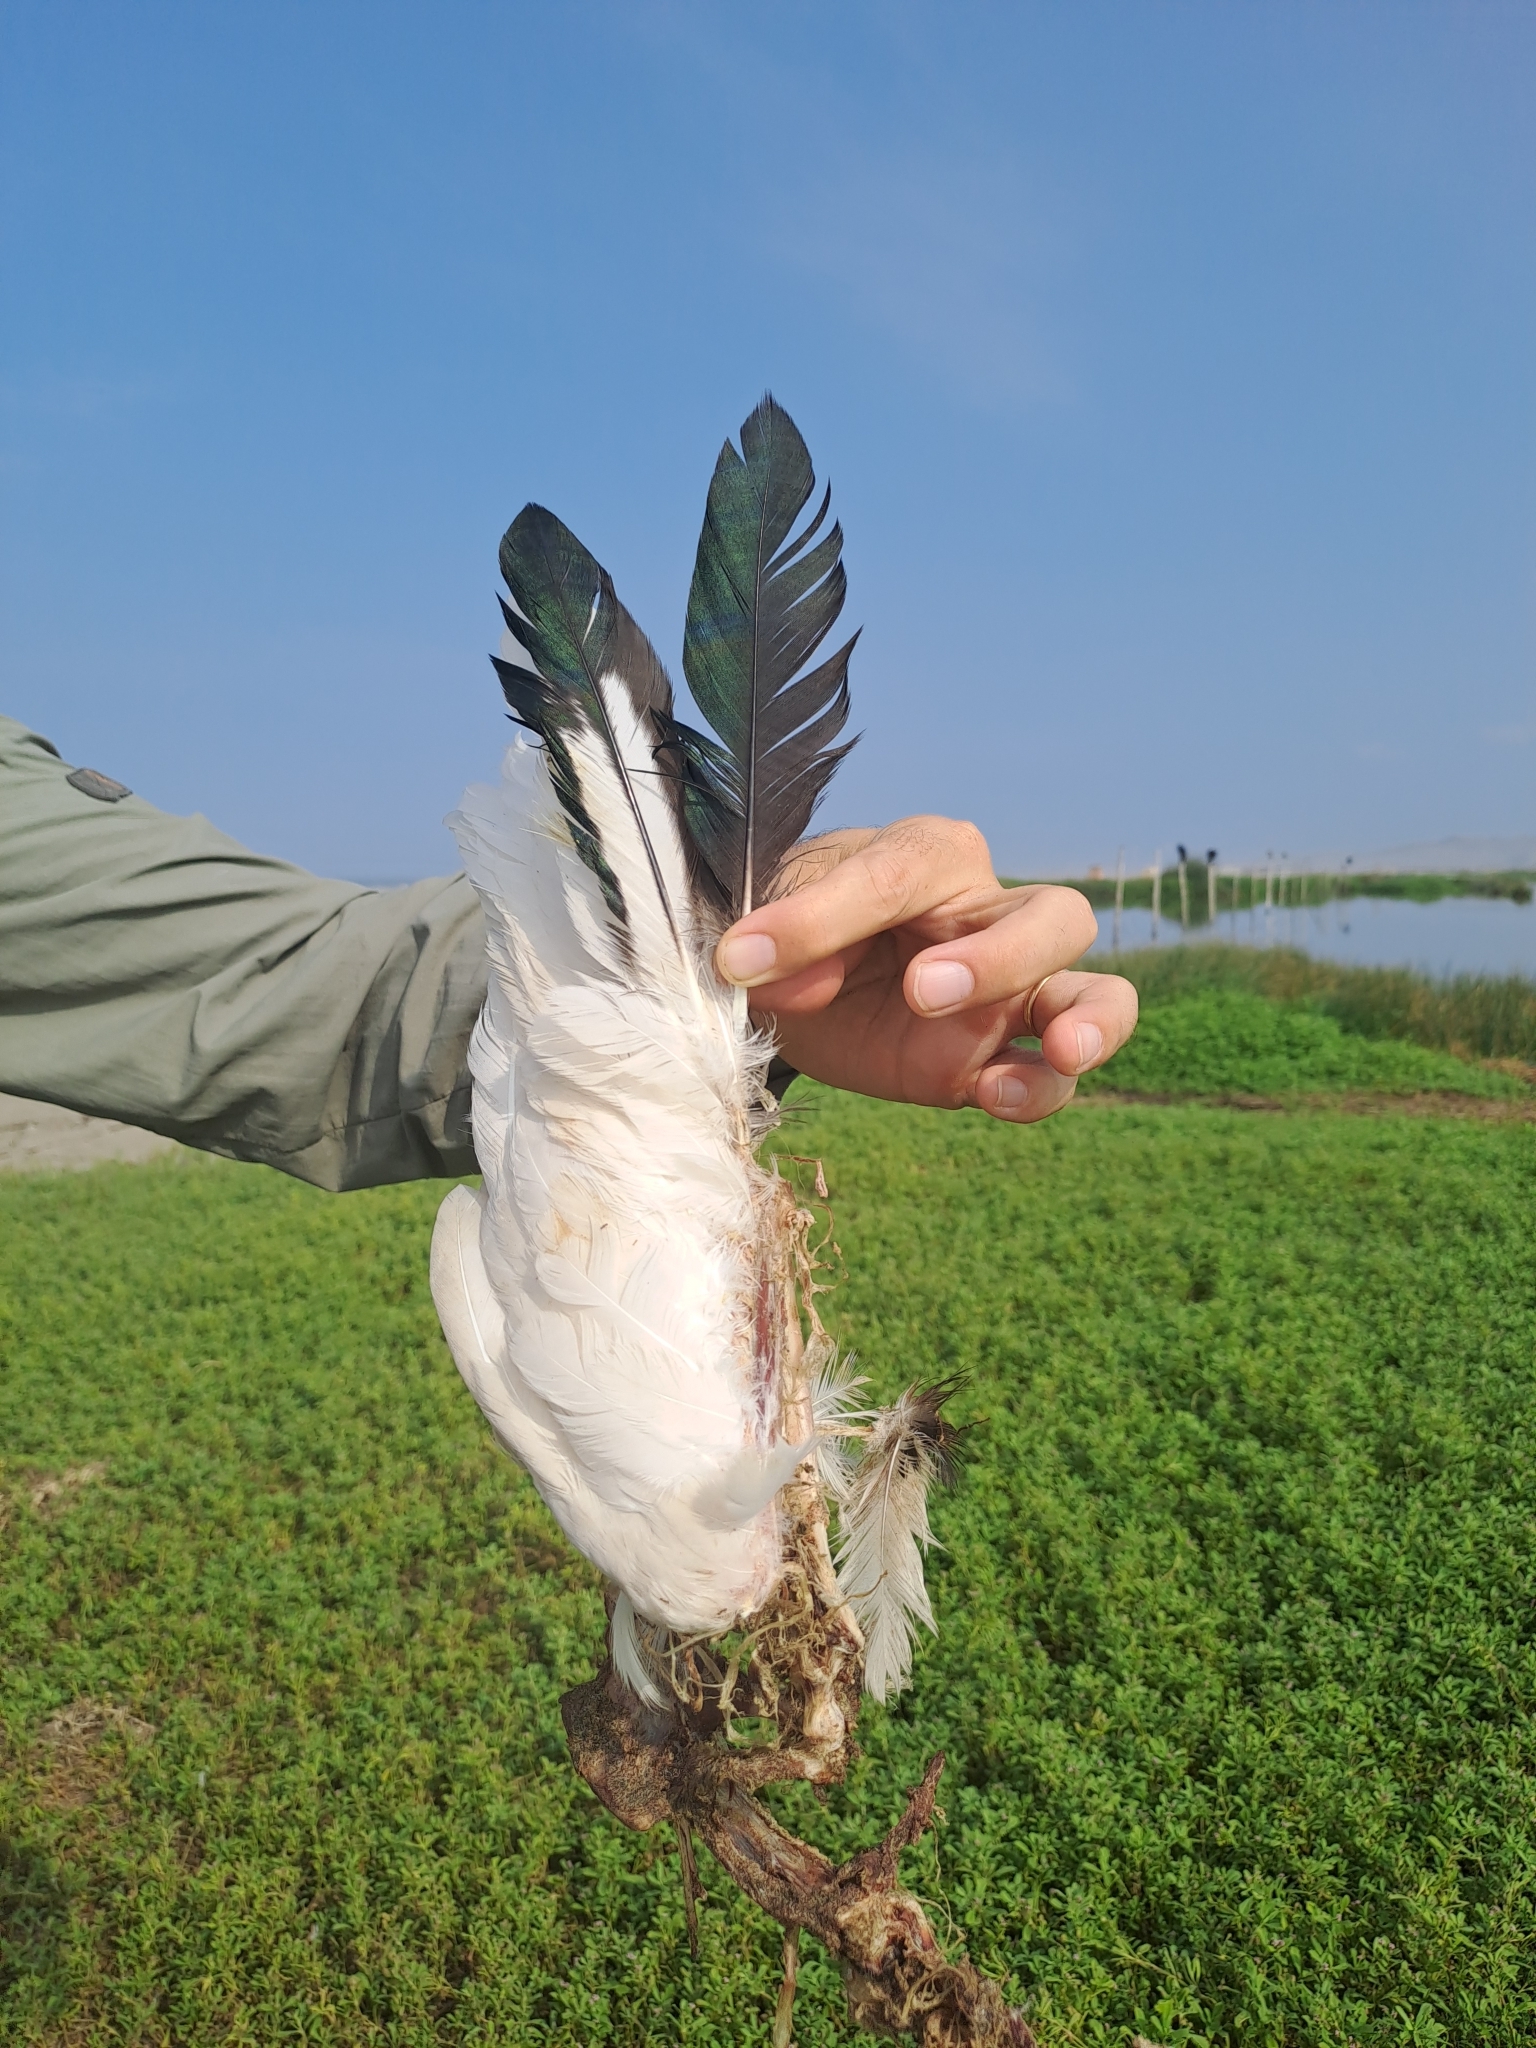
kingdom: Animalia
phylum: Chordata
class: Aves
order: Anseriformes
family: Anatidae
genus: Chloephaga
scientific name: Chloephaga melanoptera
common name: Andean goose
